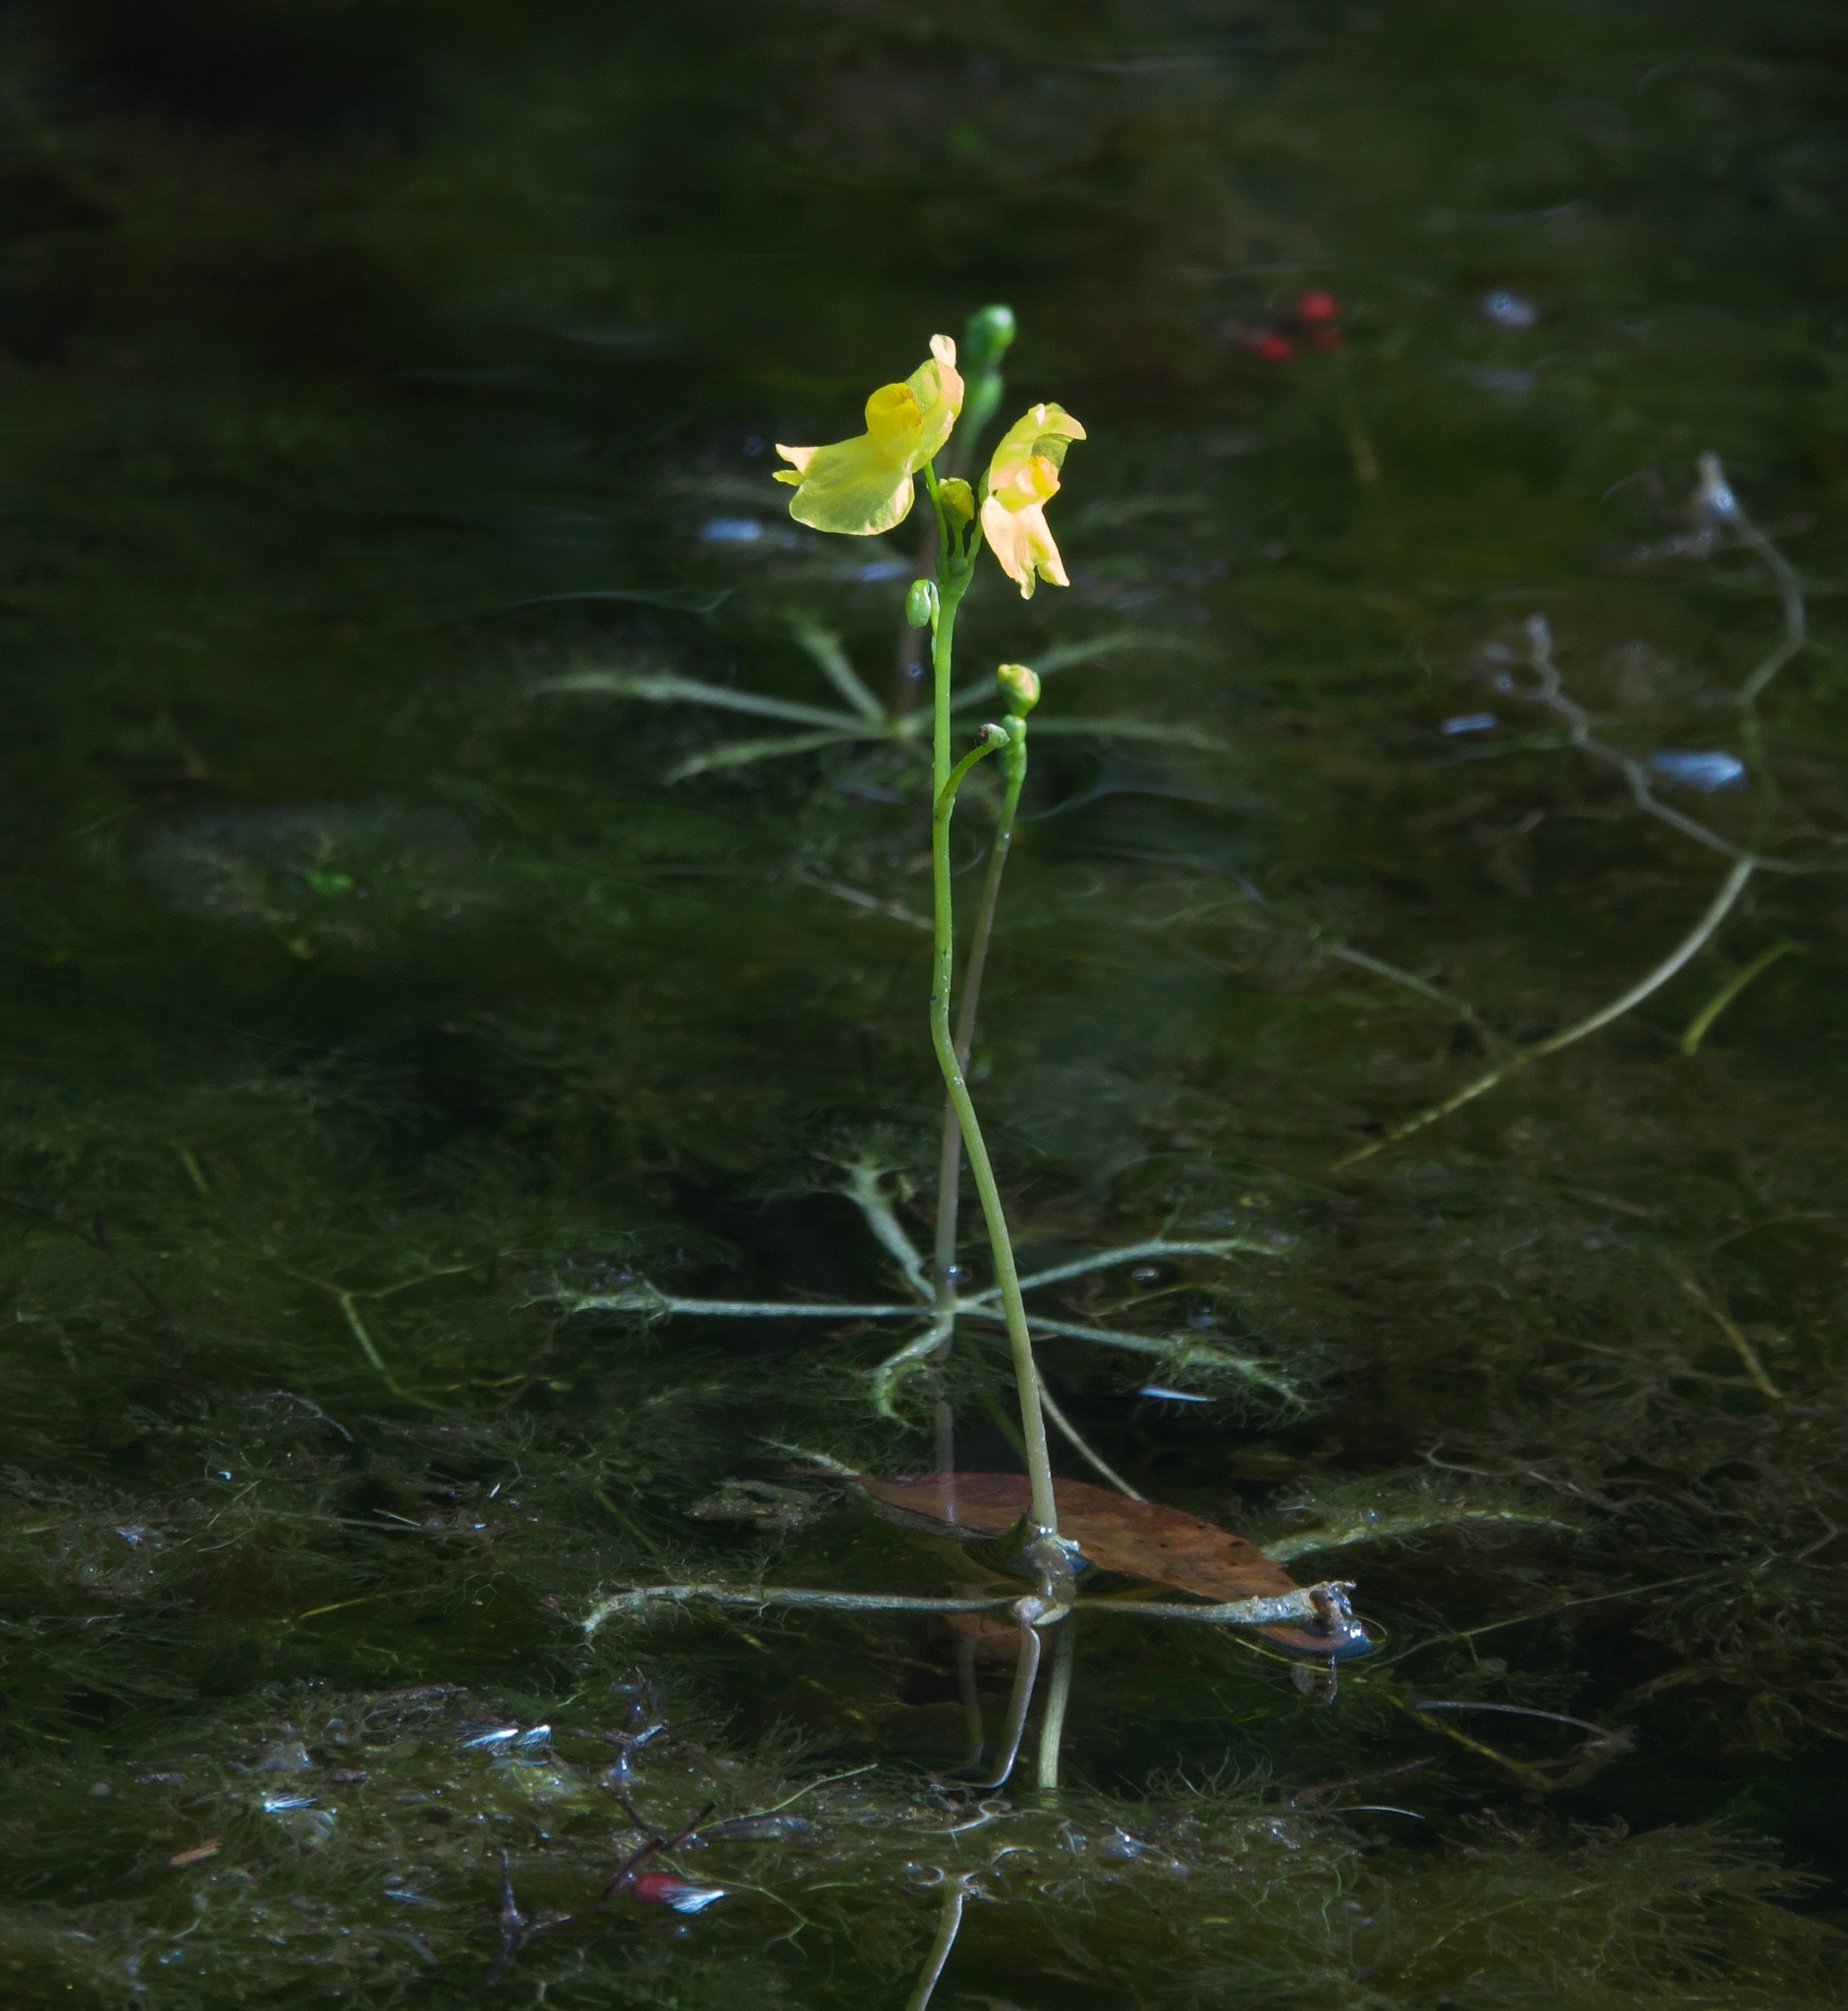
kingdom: Plantae
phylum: Tracheophyta
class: Magnoliopsida
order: Lamiales
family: Lentibulariaceae
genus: Utricularia
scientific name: Utricularia inflata
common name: Floating bladderwort
